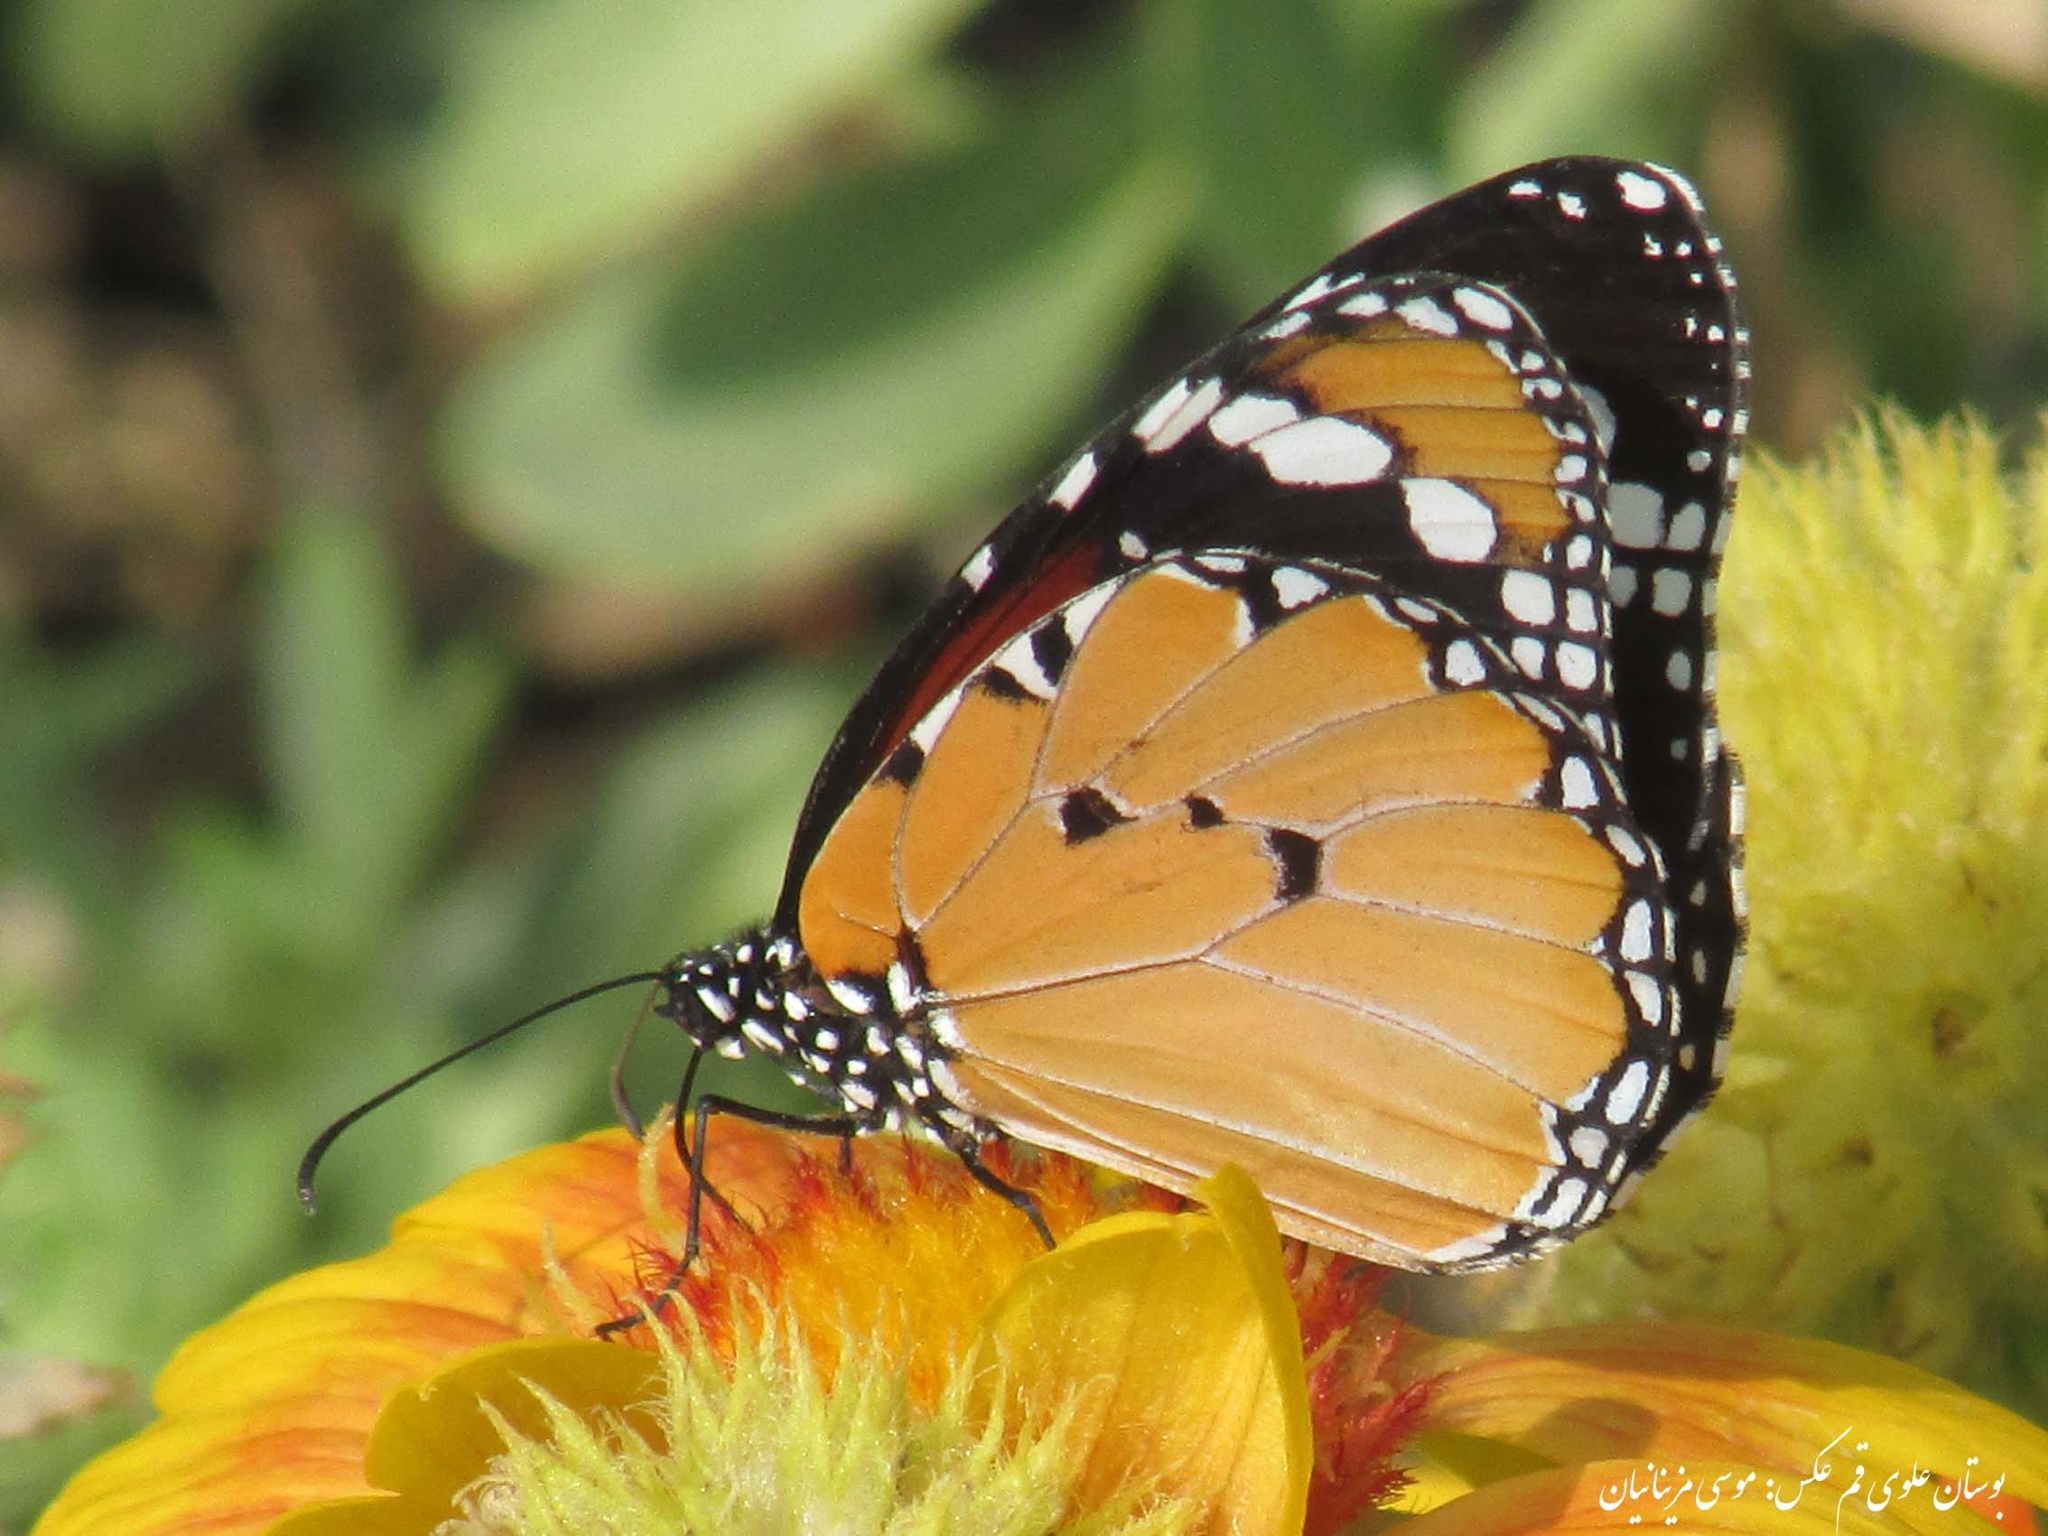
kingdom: Animalia
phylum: Arthropoda
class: Insecta
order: Lepidoptera
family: Nymphalidae
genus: Danaus
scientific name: Danaus chrysippus
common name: Plain tiger
